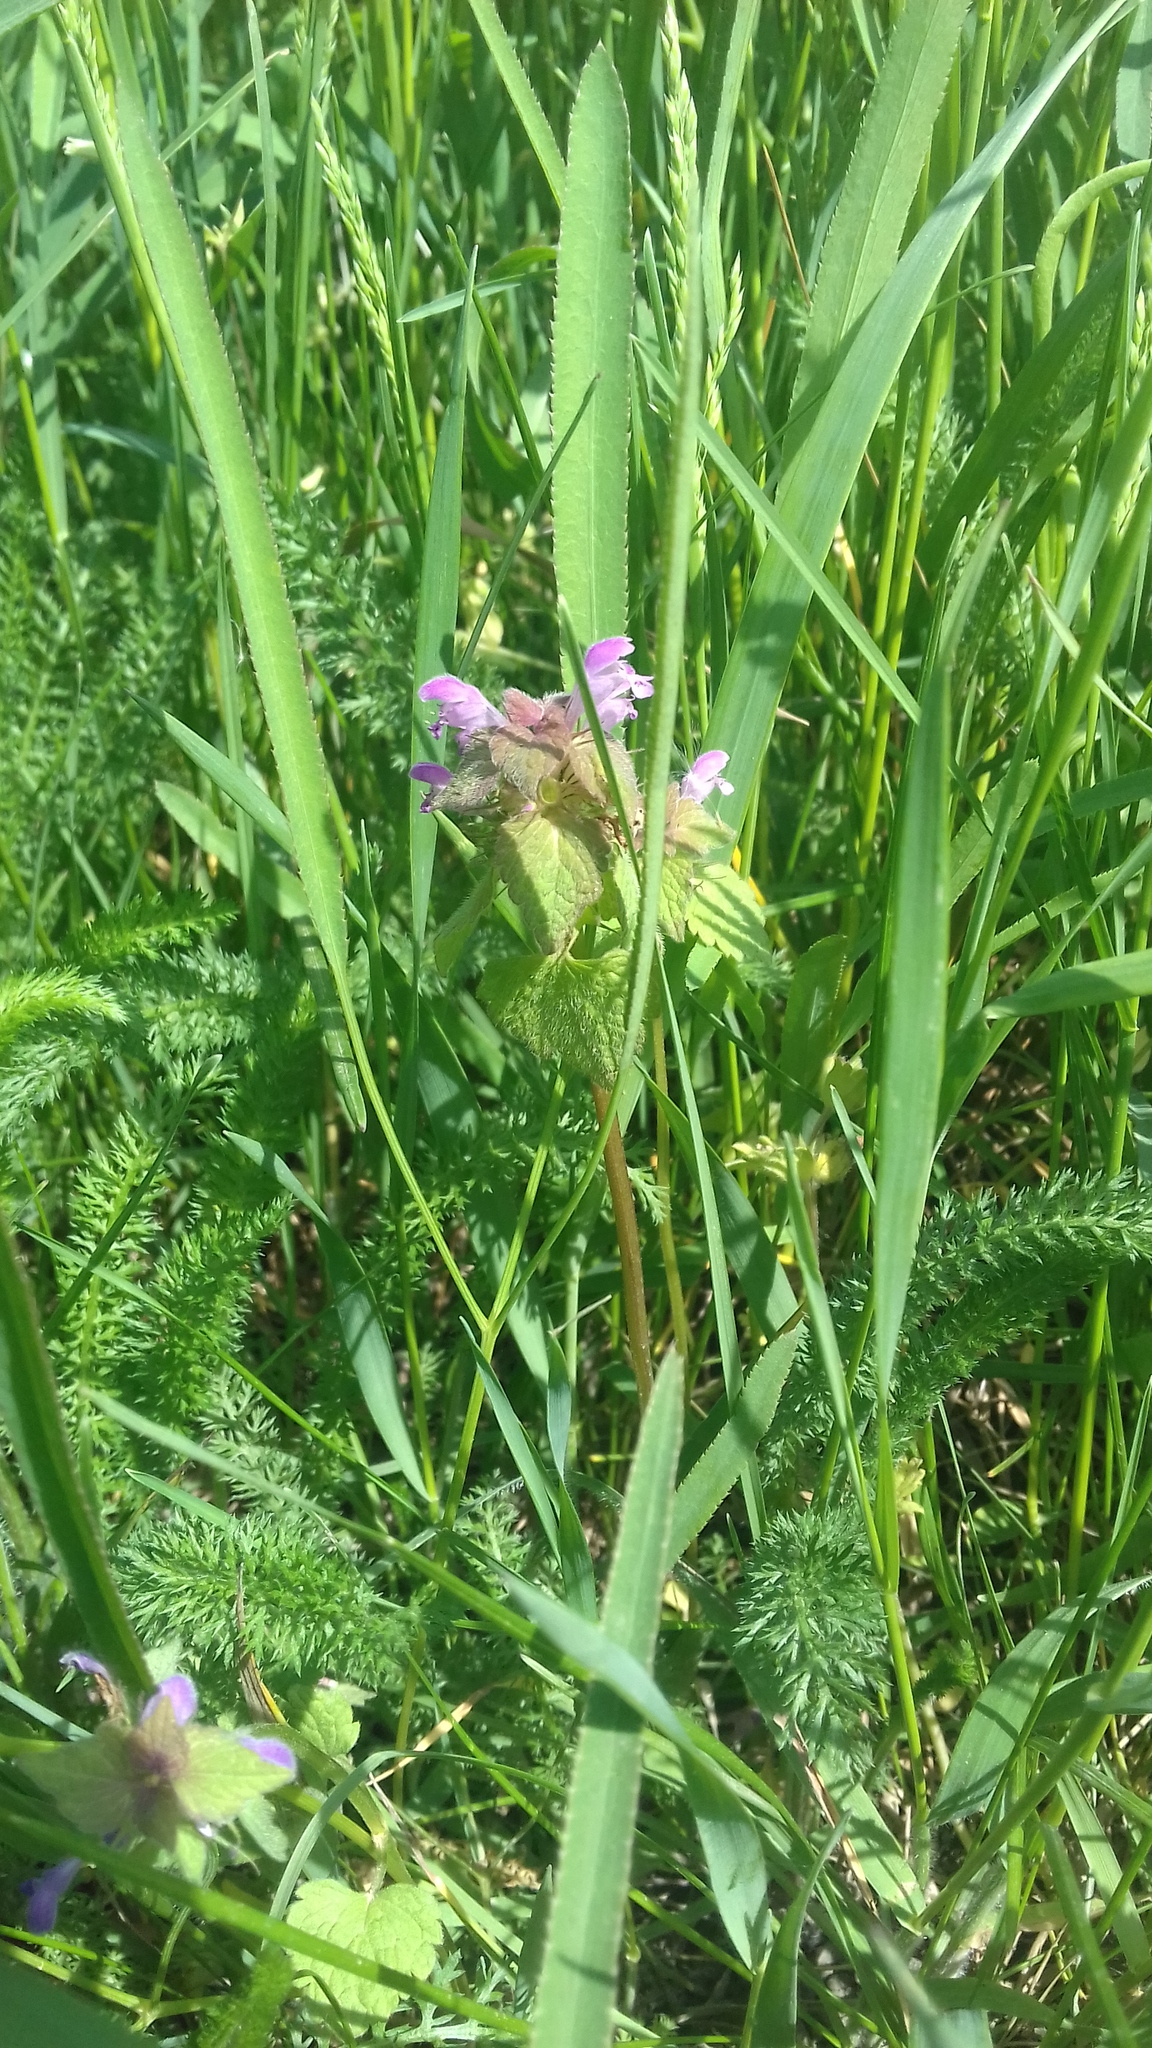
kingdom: Plantae
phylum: Tracheophyta
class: Magnoliopsida
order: Lamiales
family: Lamiaceae
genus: Lamium
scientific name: Lamium purpureum
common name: Red dead-nettle
